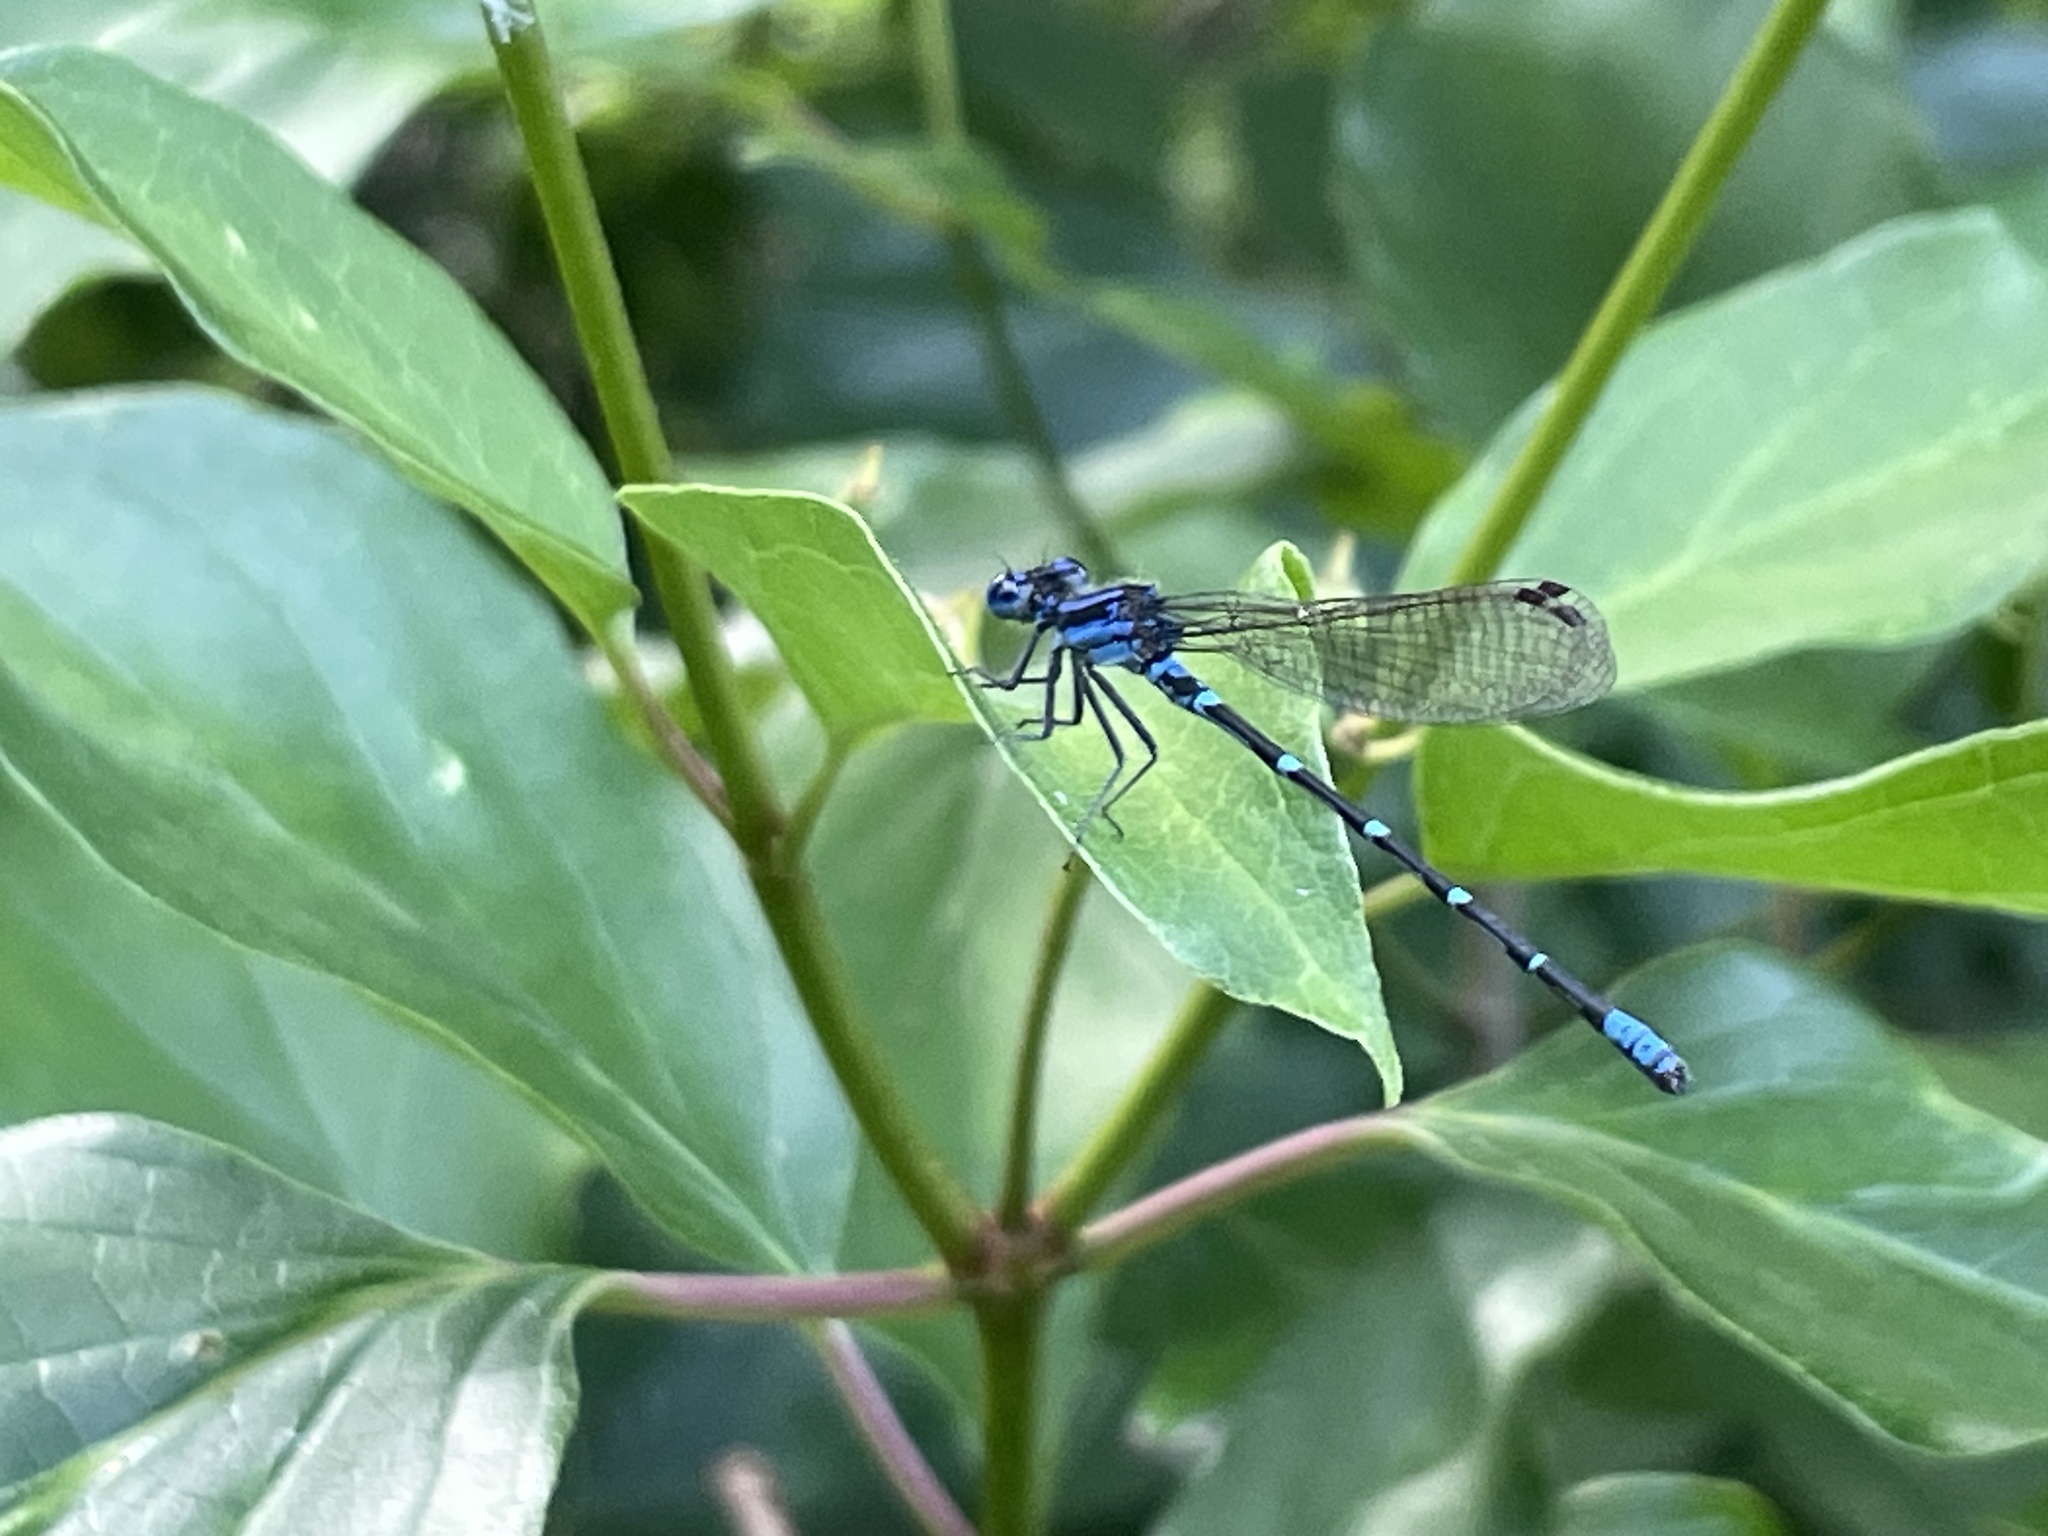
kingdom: Animalia
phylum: Arthropoda
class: Insecta
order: Odonata
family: Coenagrionidae
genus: Argia
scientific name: Argia sedula
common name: Blue-ringed dancer
